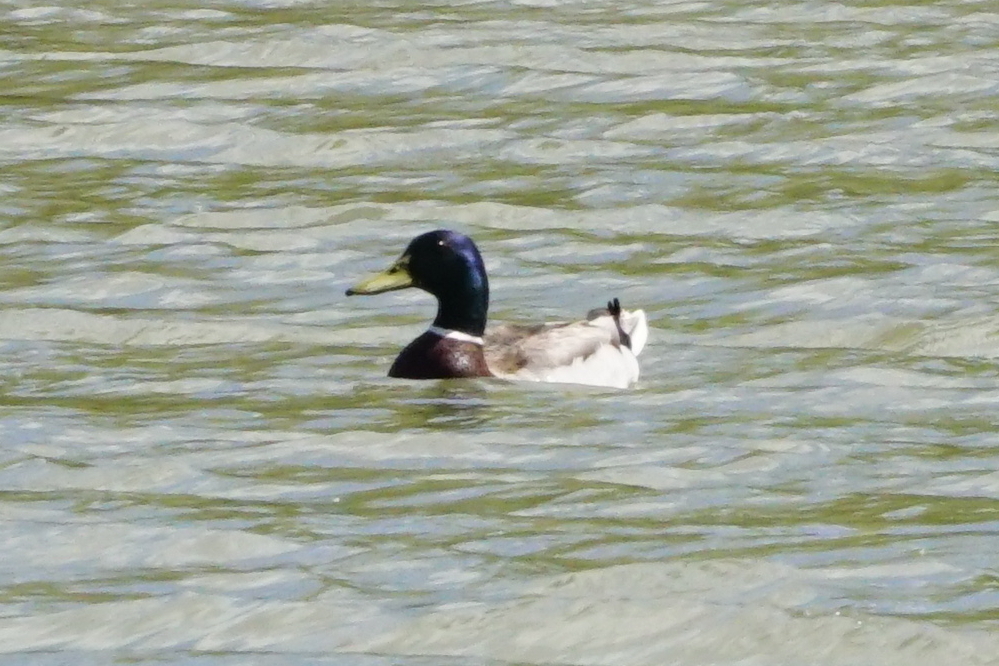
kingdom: Animalia
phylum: Chordata
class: Aves
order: Anseriformes
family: Anatidae
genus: Anas
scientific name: Anas platyrhynchos
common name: Mallard
